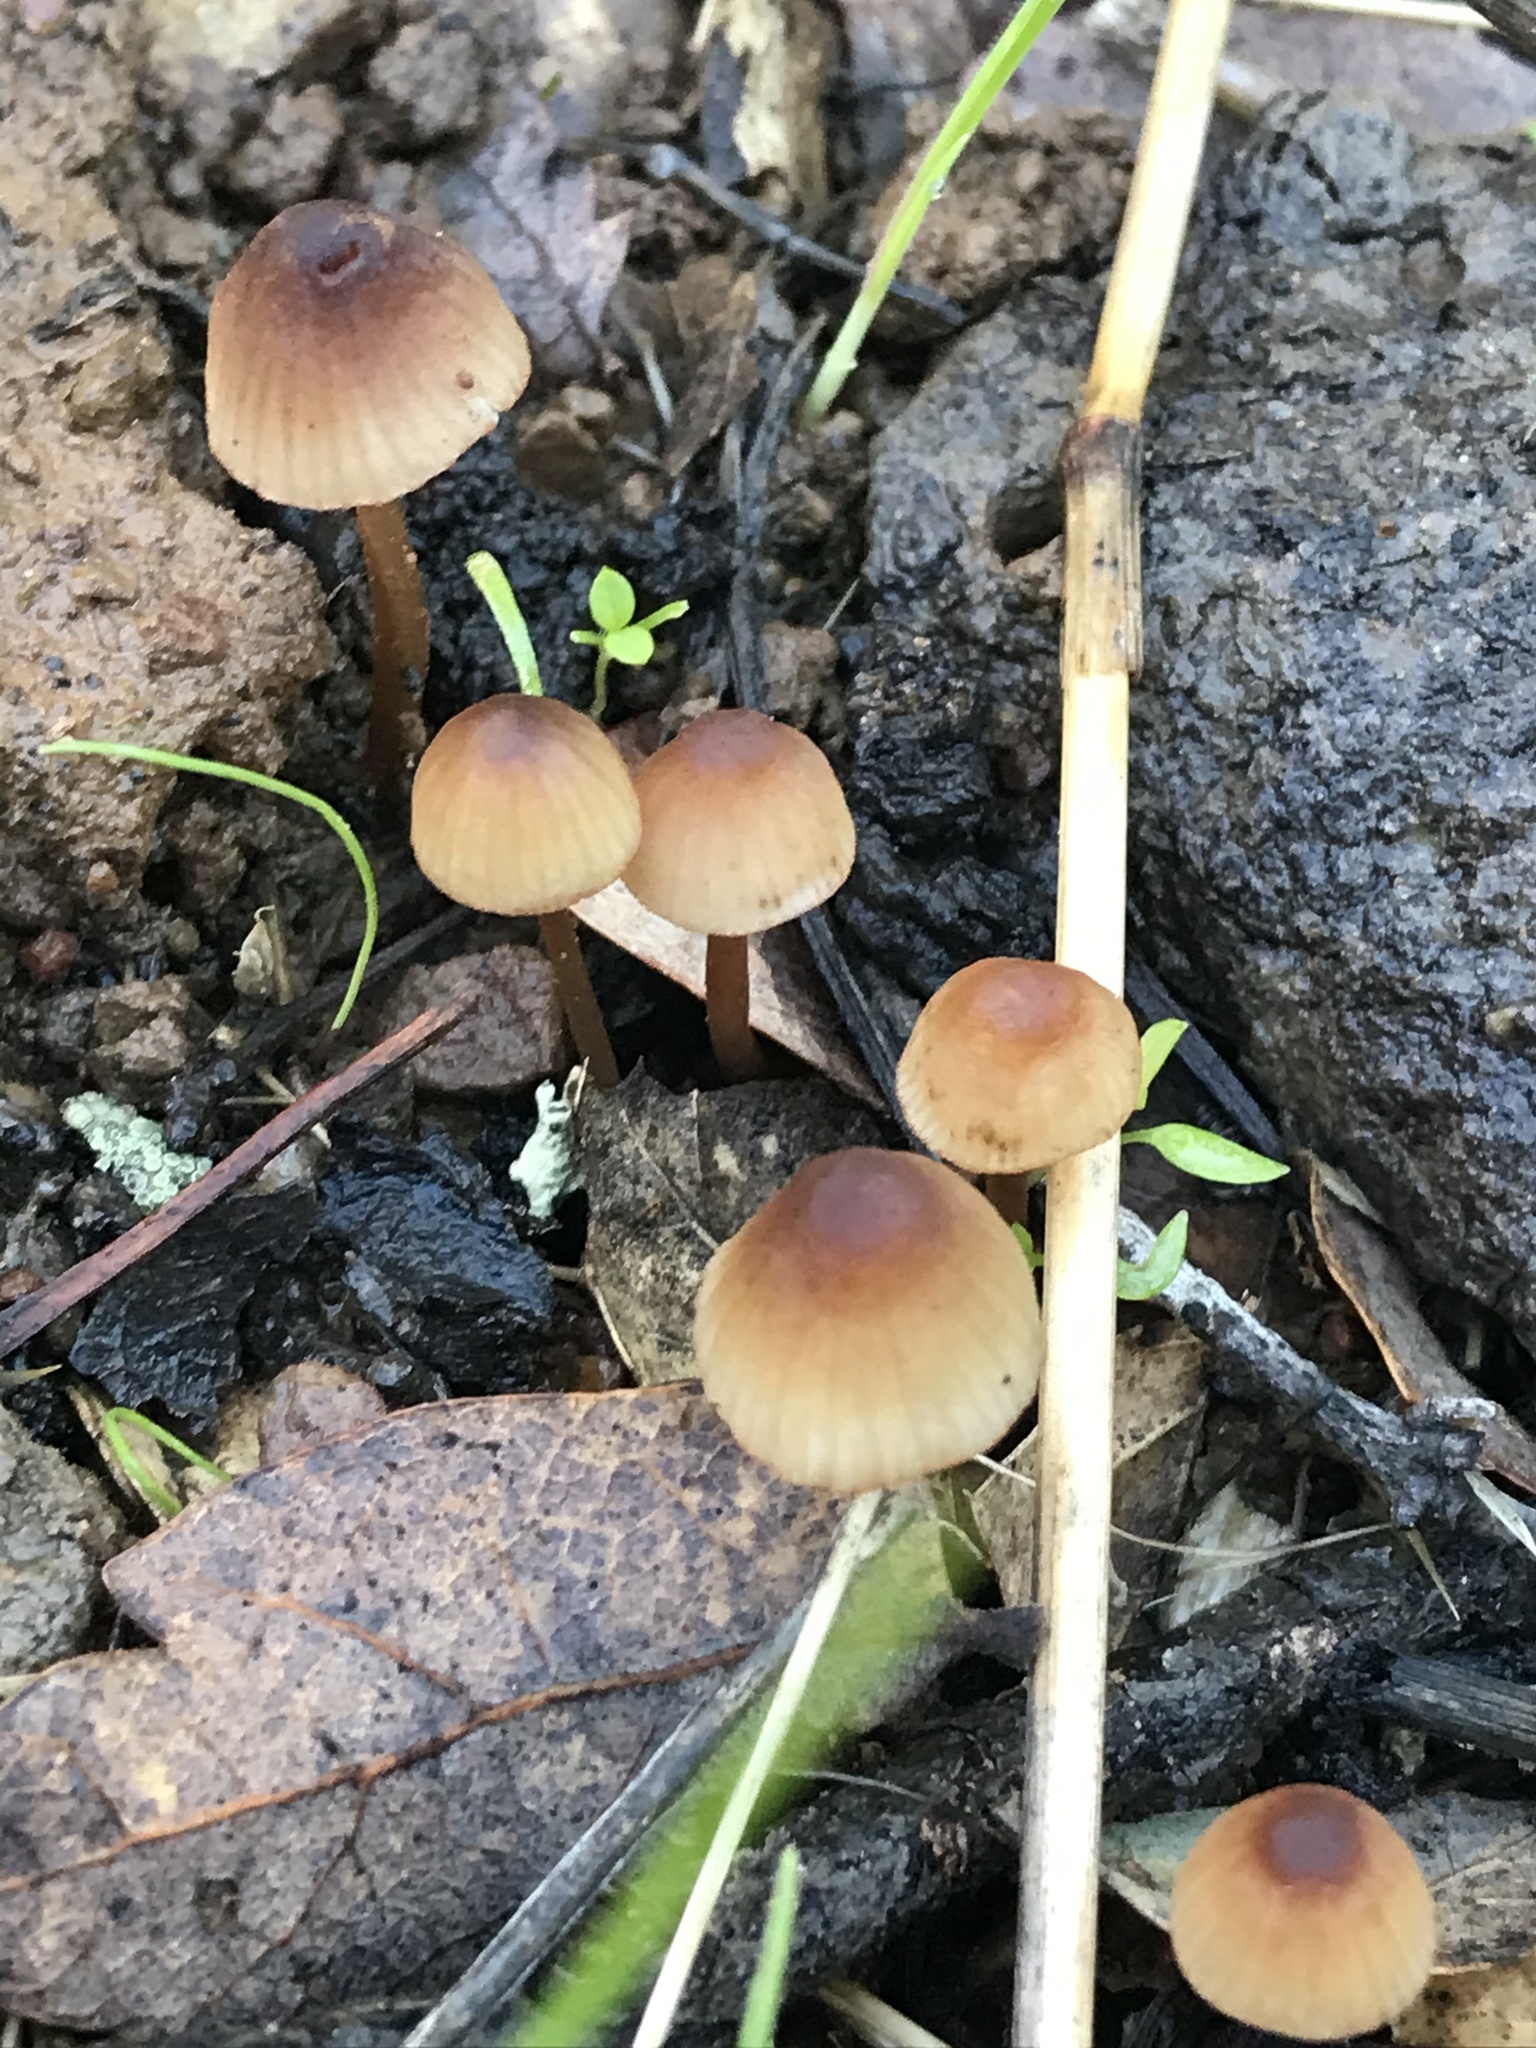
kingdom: Fungi
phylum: Basidiomycota
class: Agaricomycetes
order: Agaricales
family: Mycenaceae
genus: Mycena
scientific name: Mycena
